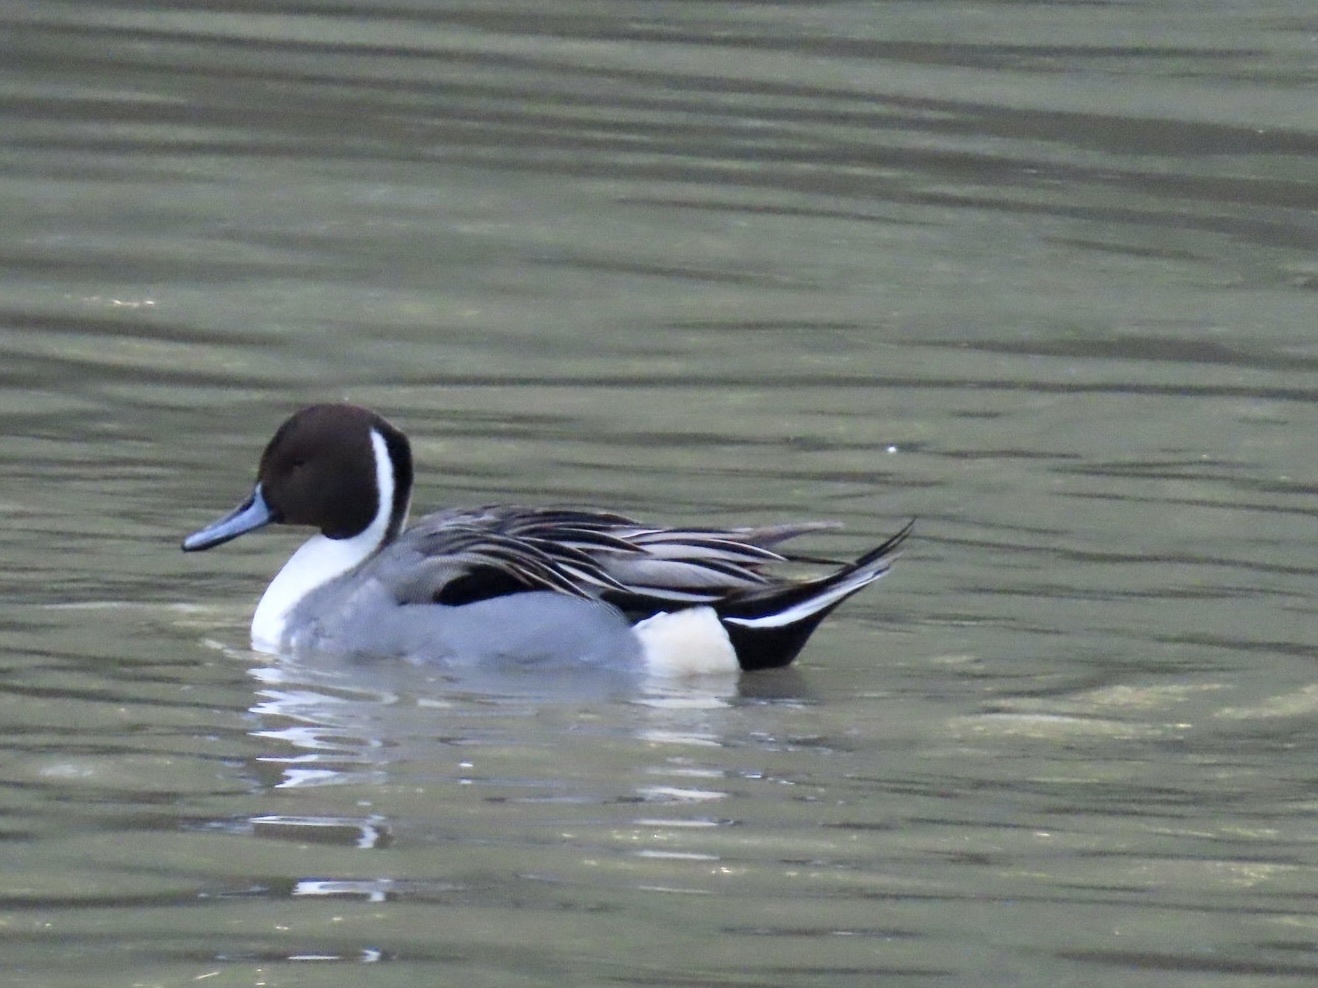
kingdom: Animalia
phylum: Chordata
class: Aves
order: Anseriformes
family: Anatidae
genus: Anas
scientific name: Anas acuta
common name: Northern pintail
